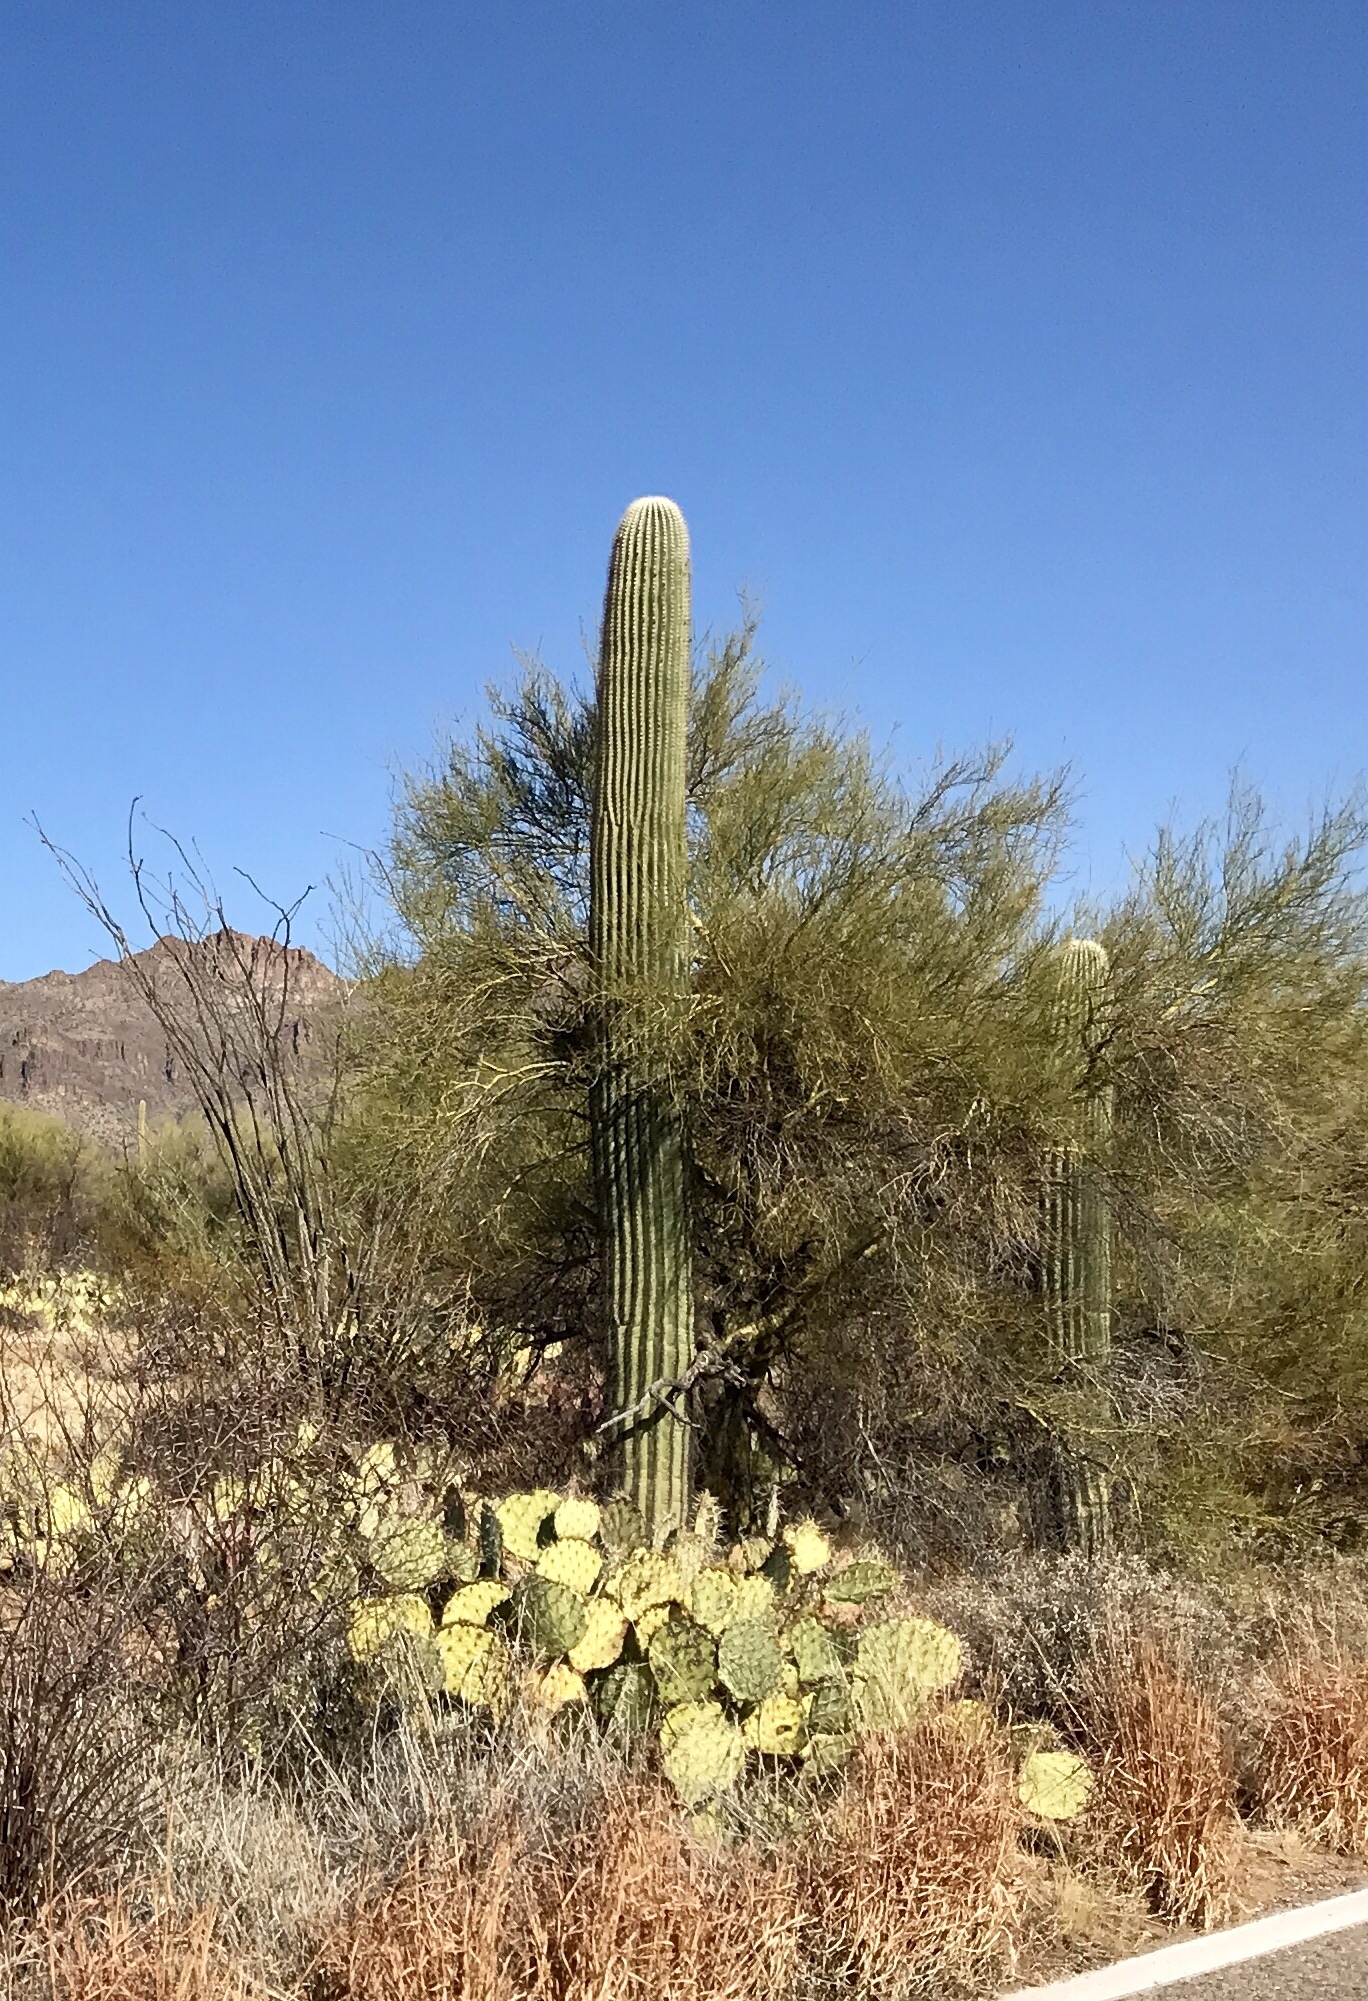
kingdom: Plantae
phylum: Tracheophyta
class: Magnoliopsida
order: Caryophyllales
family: Cactaceae
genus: Carnegiea
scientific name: Carnegiea gigantea
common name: Saguaro
